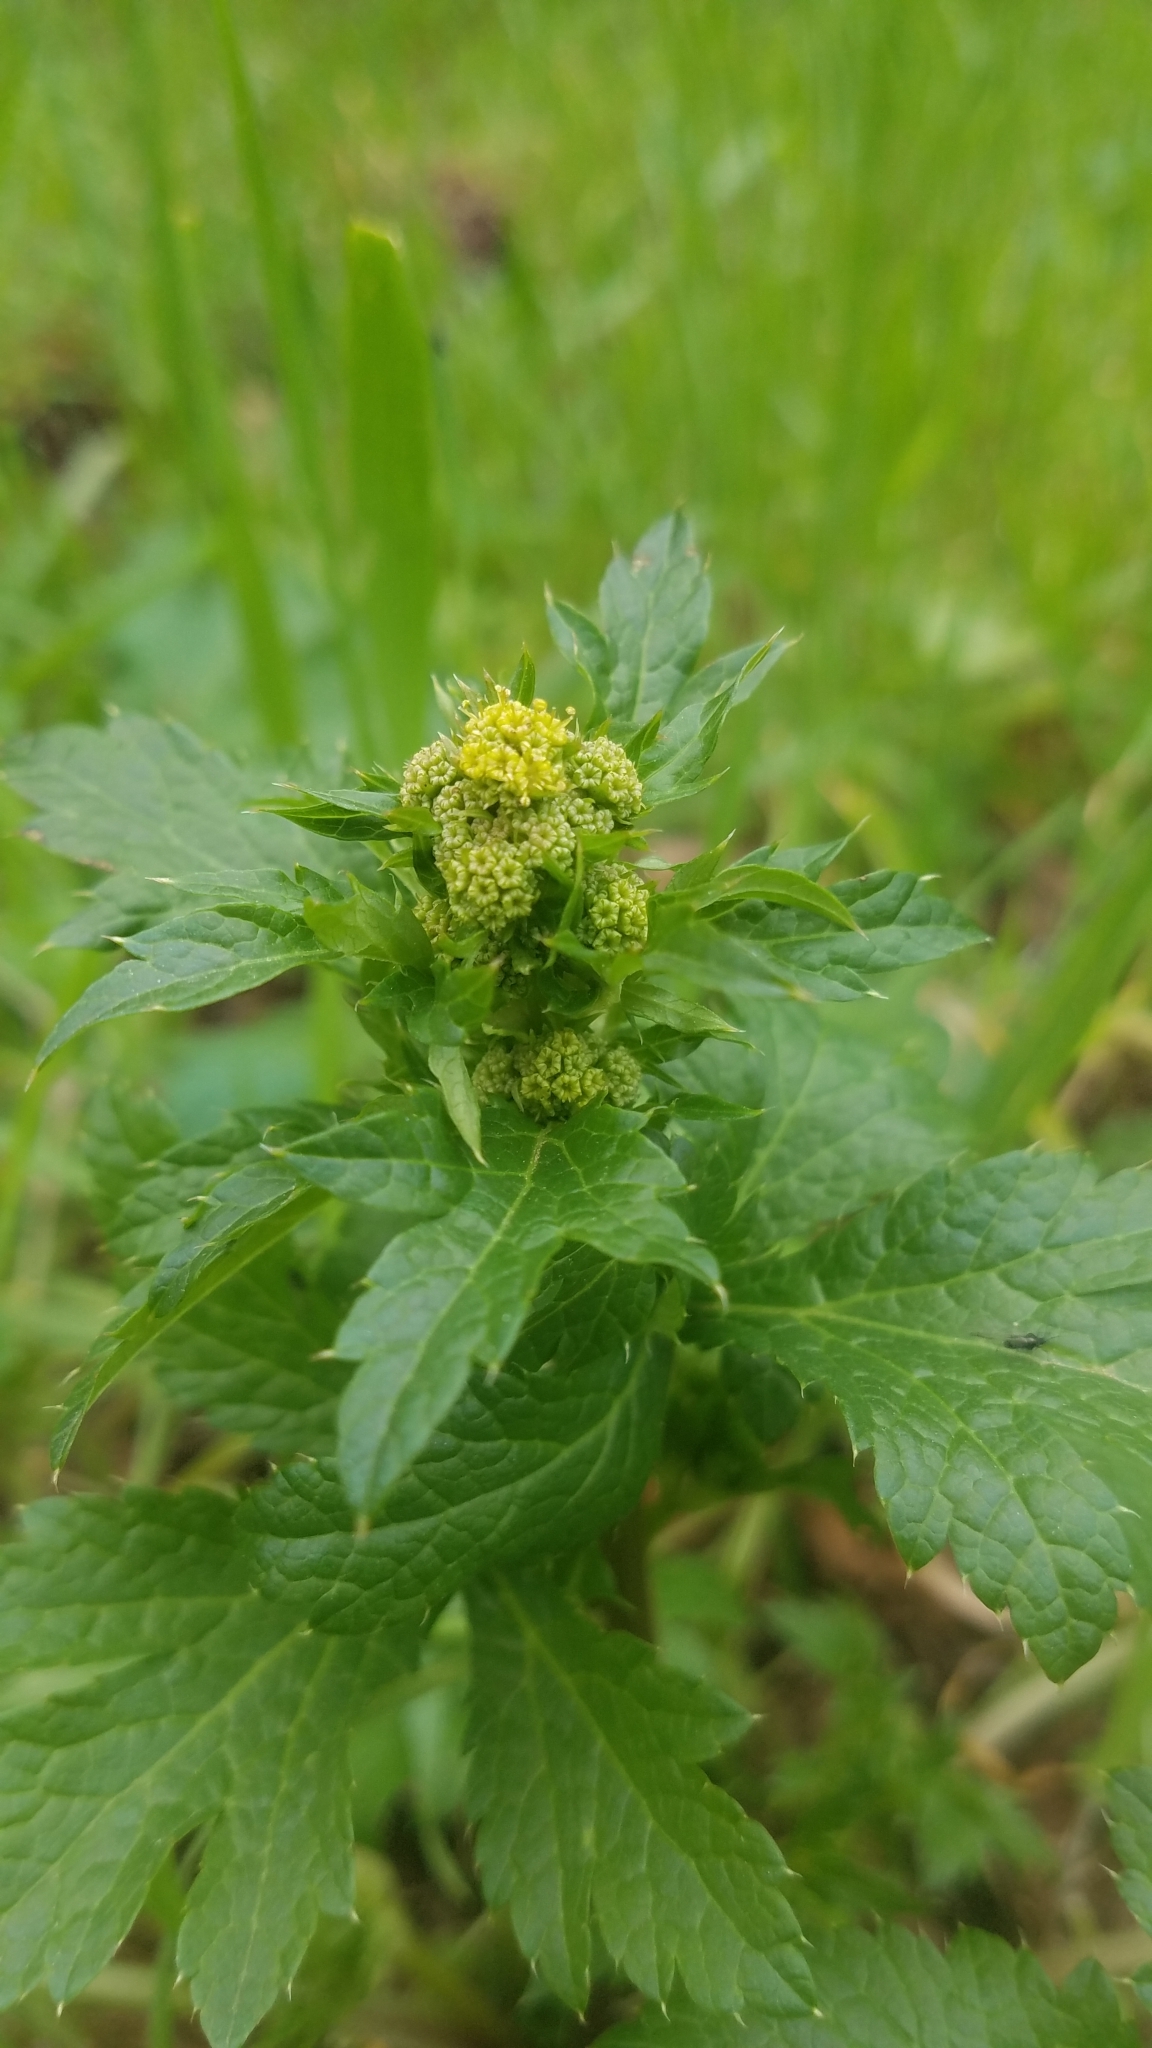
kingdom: Plantae
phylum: Tracheophyta
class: Magnoliopsida
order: Apiales
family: Apiaceae
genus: Sanicula
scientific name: Sanicula crassicaulis
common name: Western snakeroot
